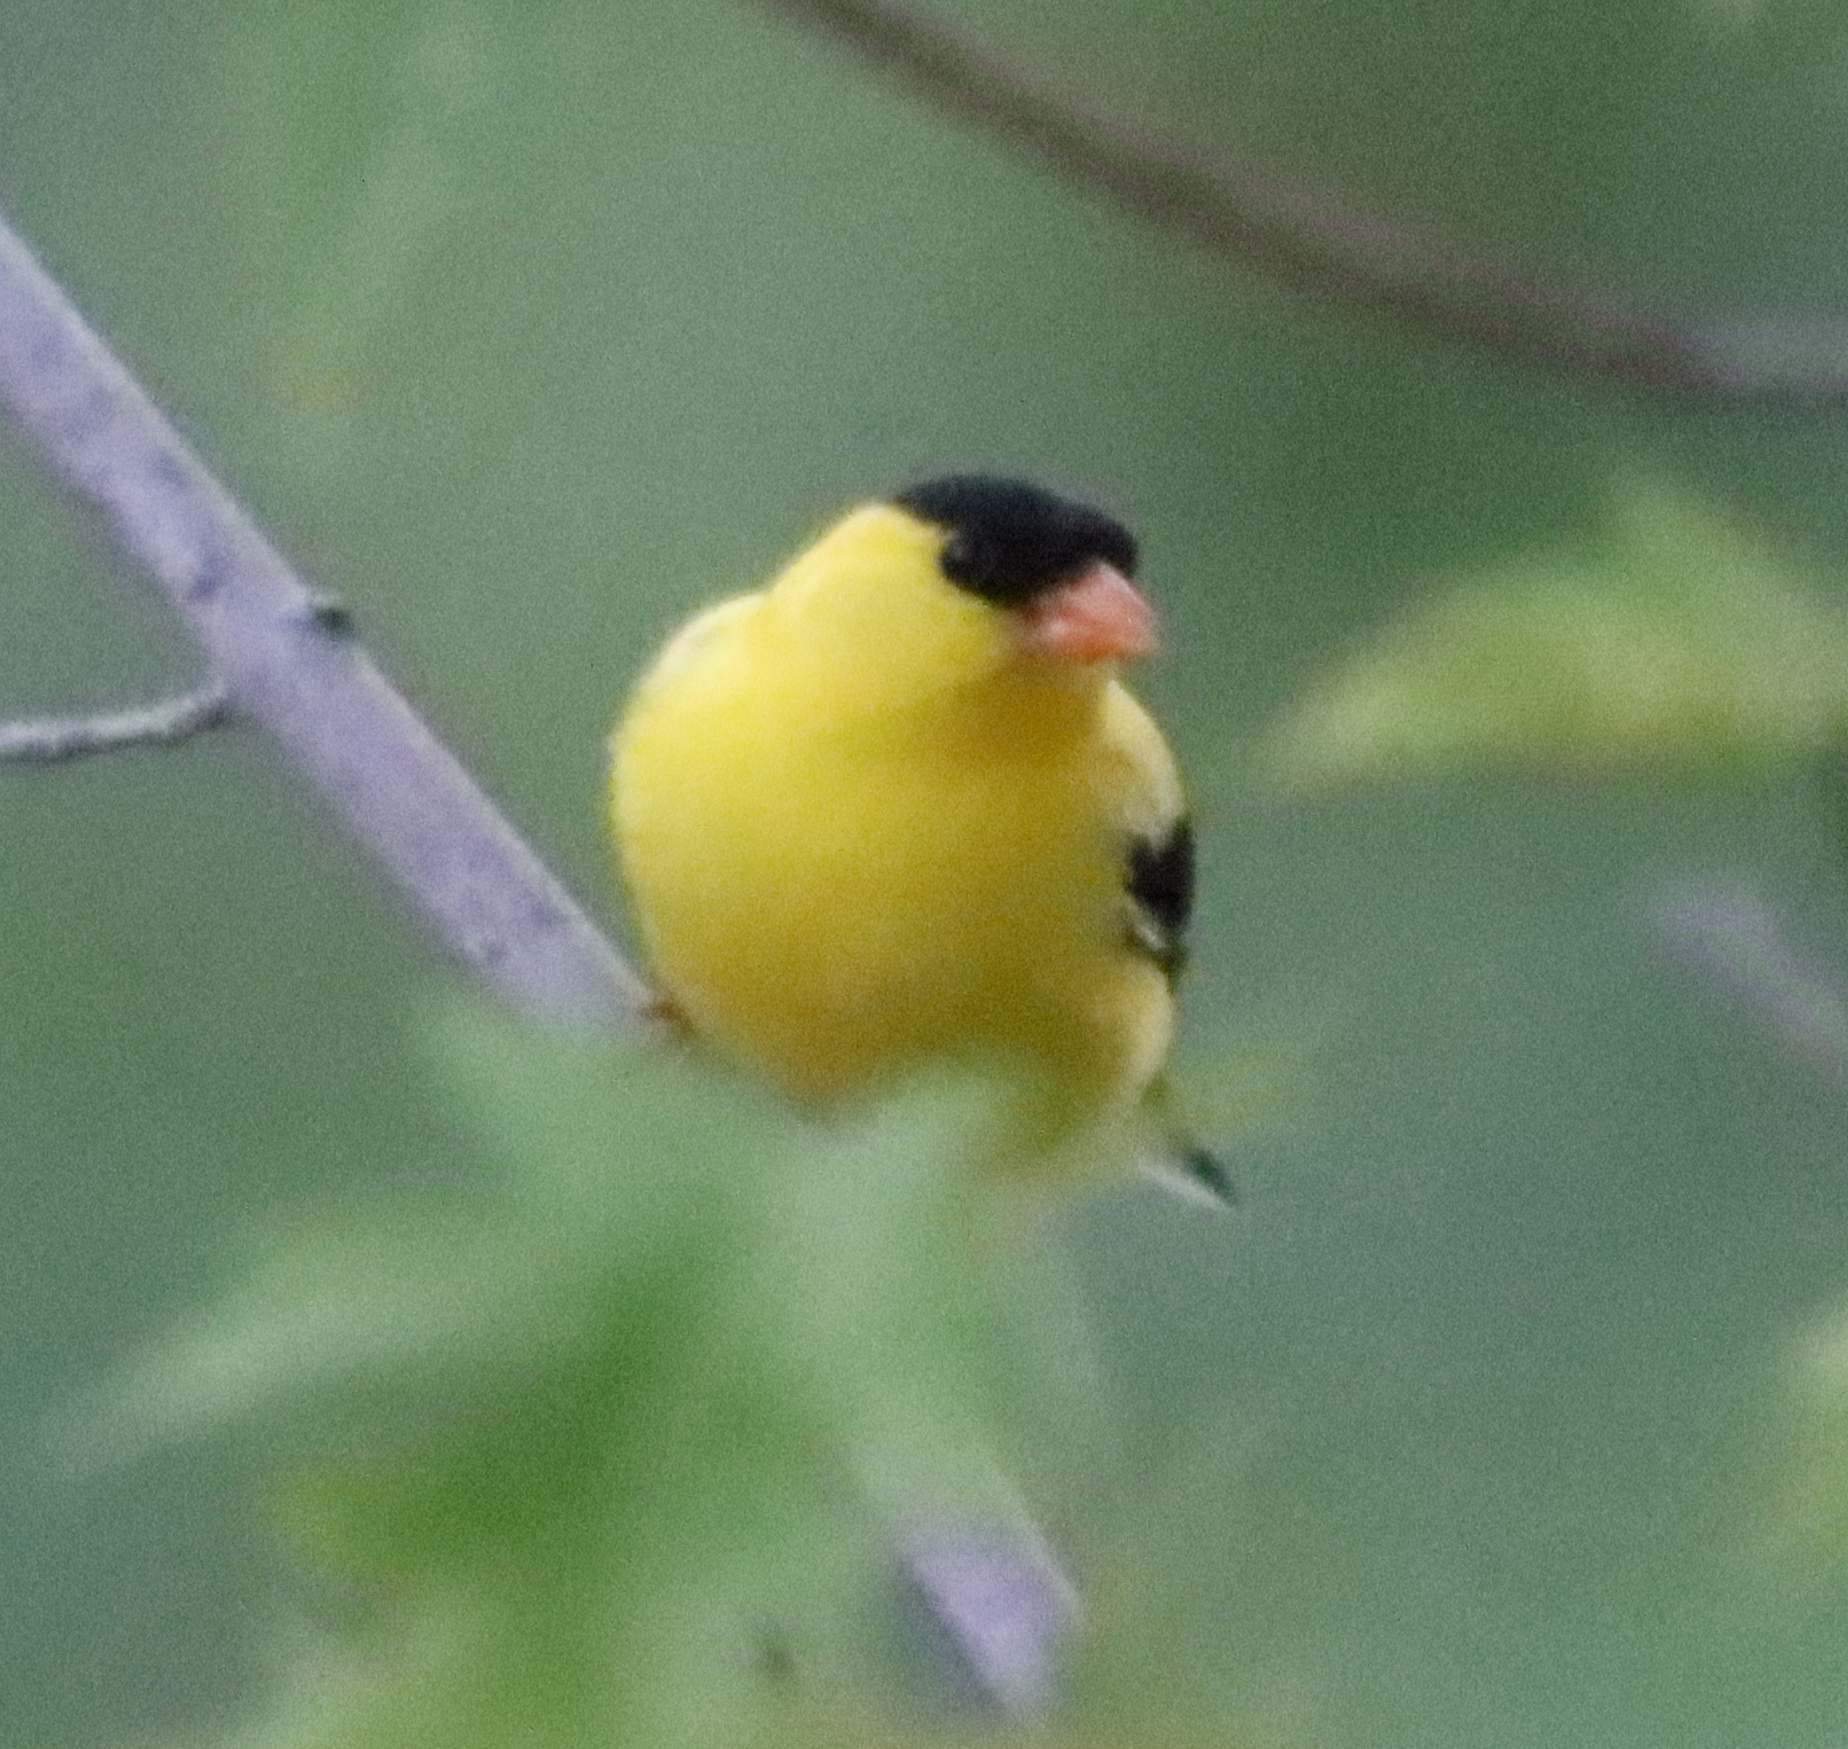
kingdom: Animalia
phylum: Chordata
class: Aves
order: Passeriformes
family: Fringillidae
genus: Spinus
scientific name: Spinus tristis
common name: American goldfinch
